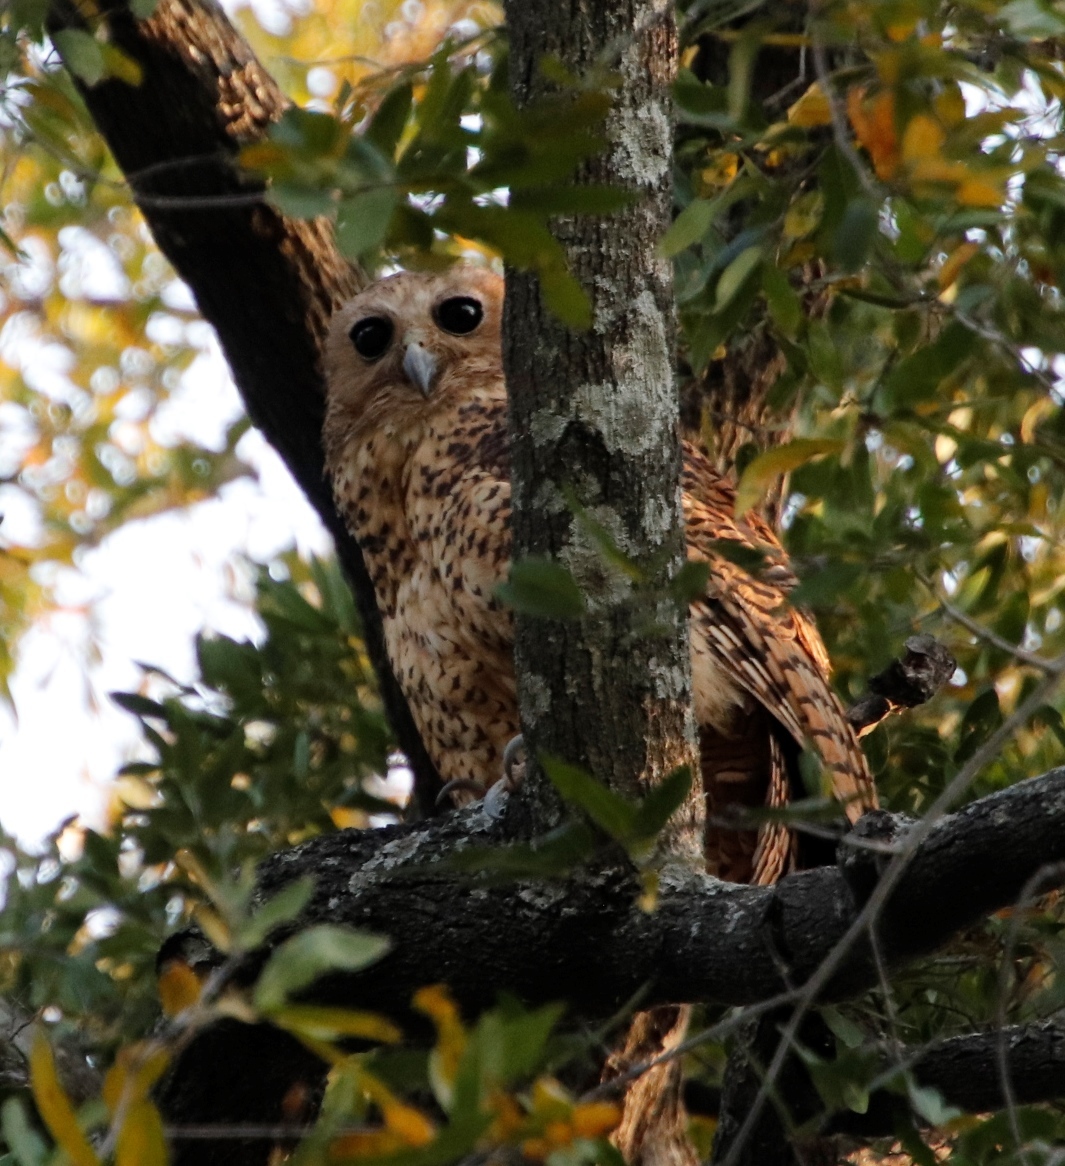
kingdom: Animalia
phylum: Chordata
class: Aves
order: Strigiformes
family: Strigidae
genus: Scotopelia
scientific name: Scotopelia peli
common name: Pel's fishing owl
